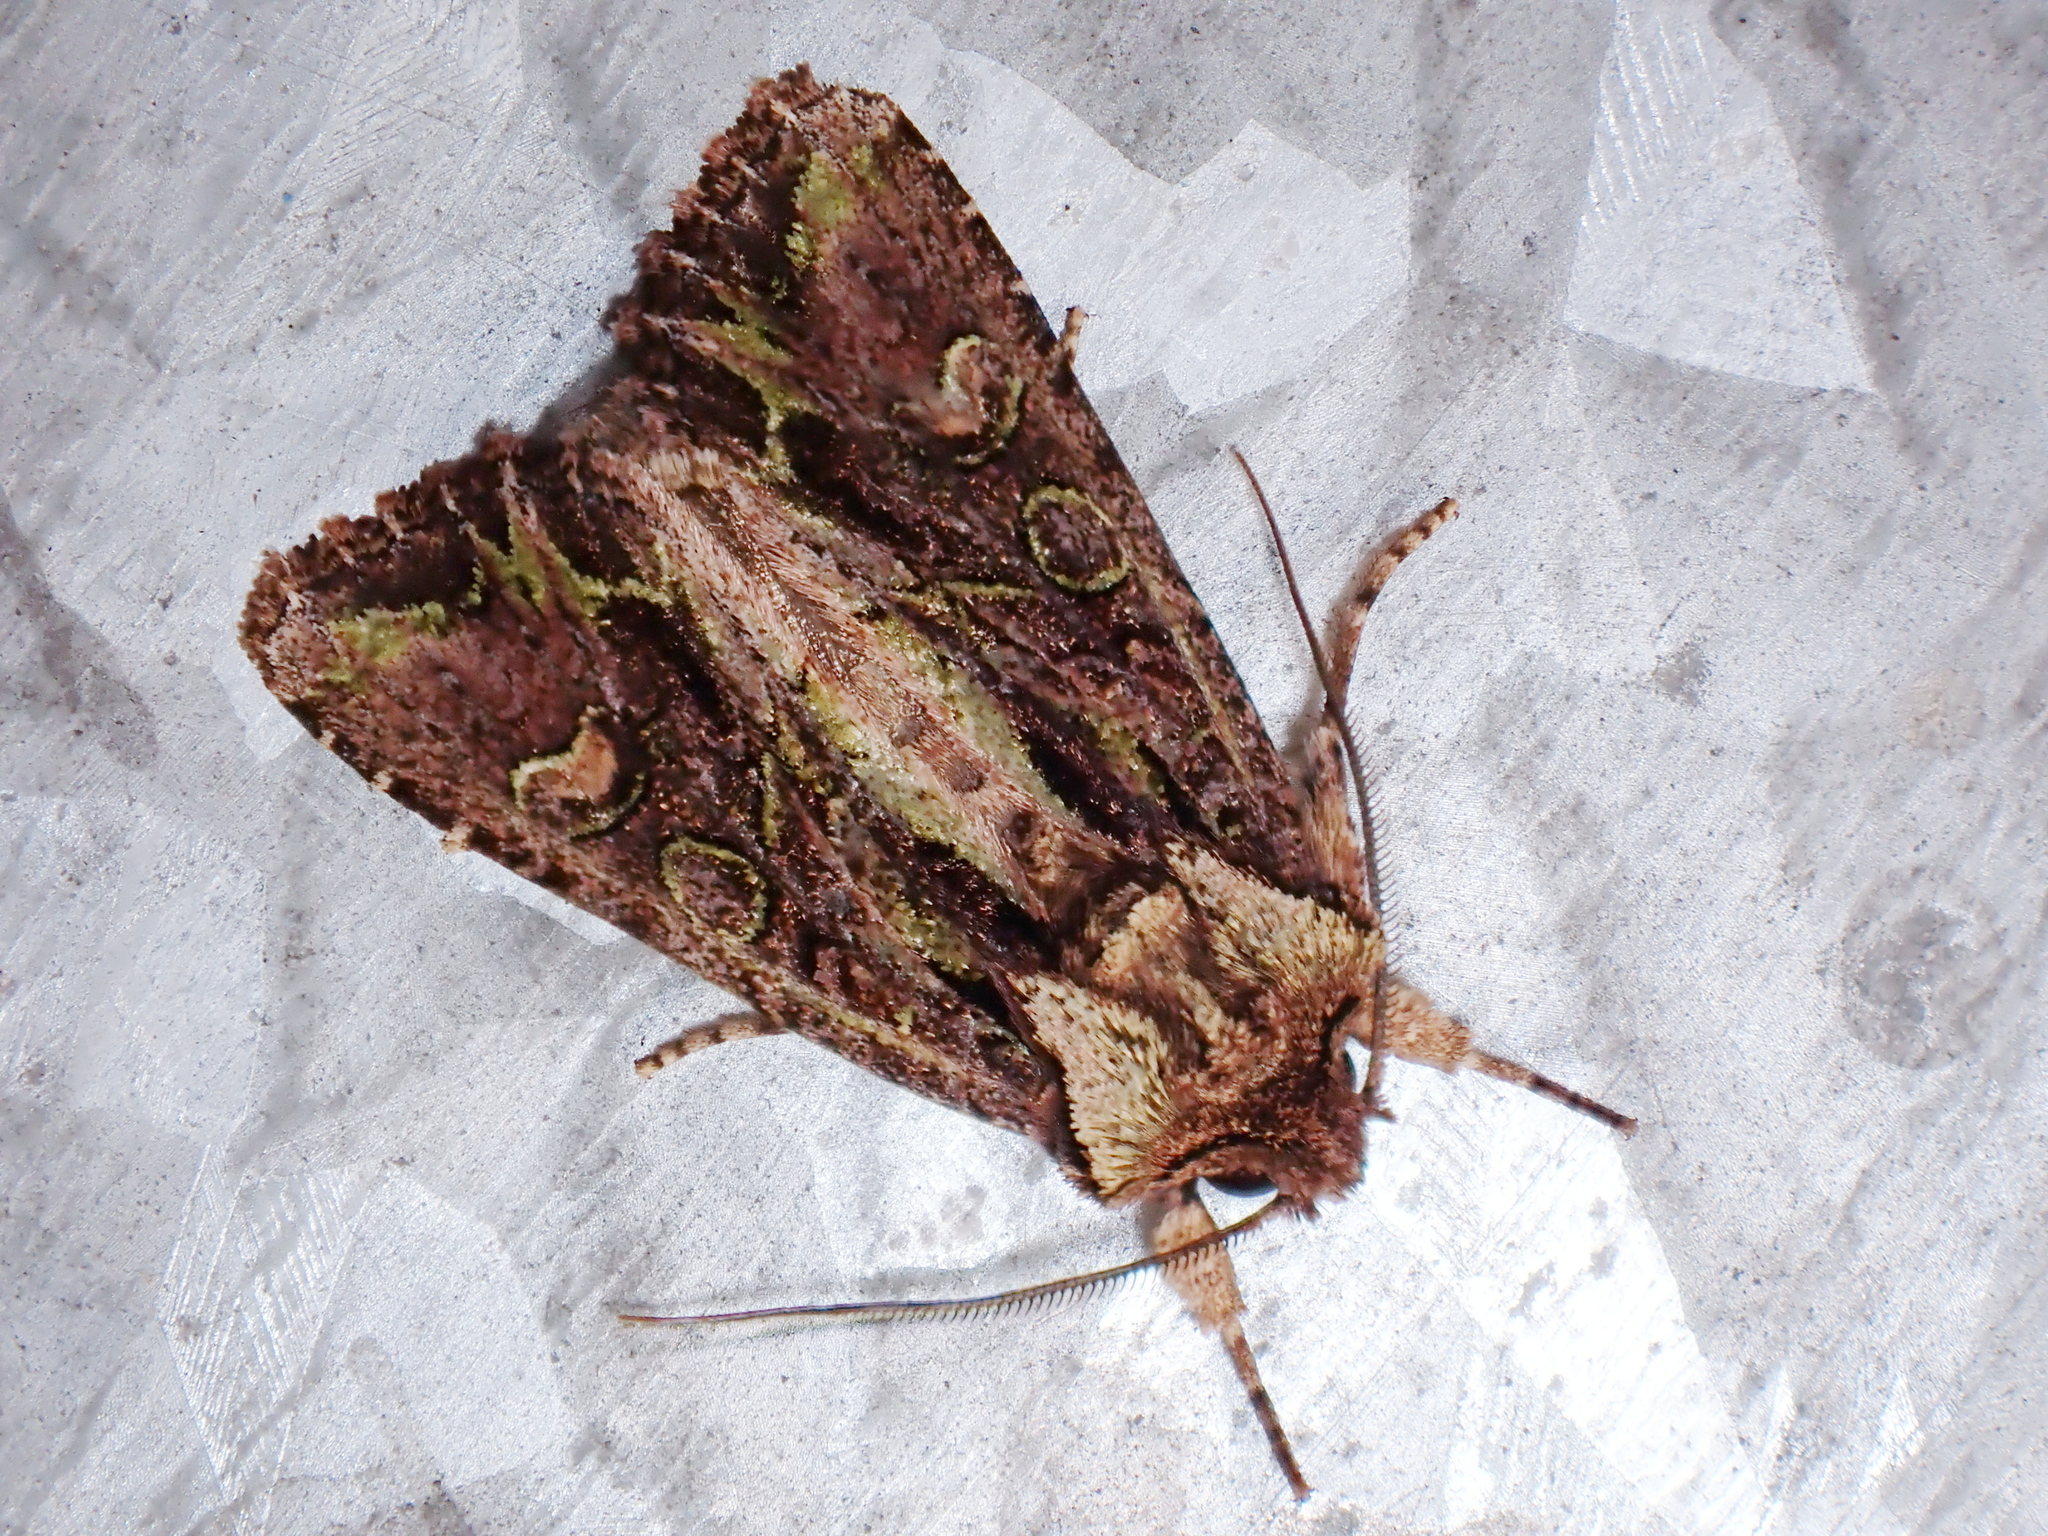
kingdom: Animalia
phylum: Arthropoda
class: Insecta
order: Lepidoptera
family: Noctuidae
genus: Ichneutica
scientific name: Ichneutica insignis
